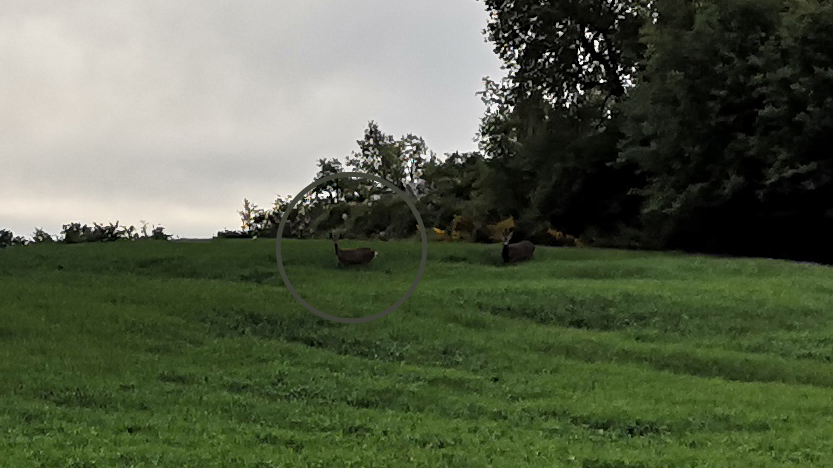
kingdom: Animalia
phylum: Chordata
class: Mammalia
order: Artiodactyla
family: Cervidae
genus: Capreolus
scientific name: Capreolus capreolus
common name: Western roe deer
